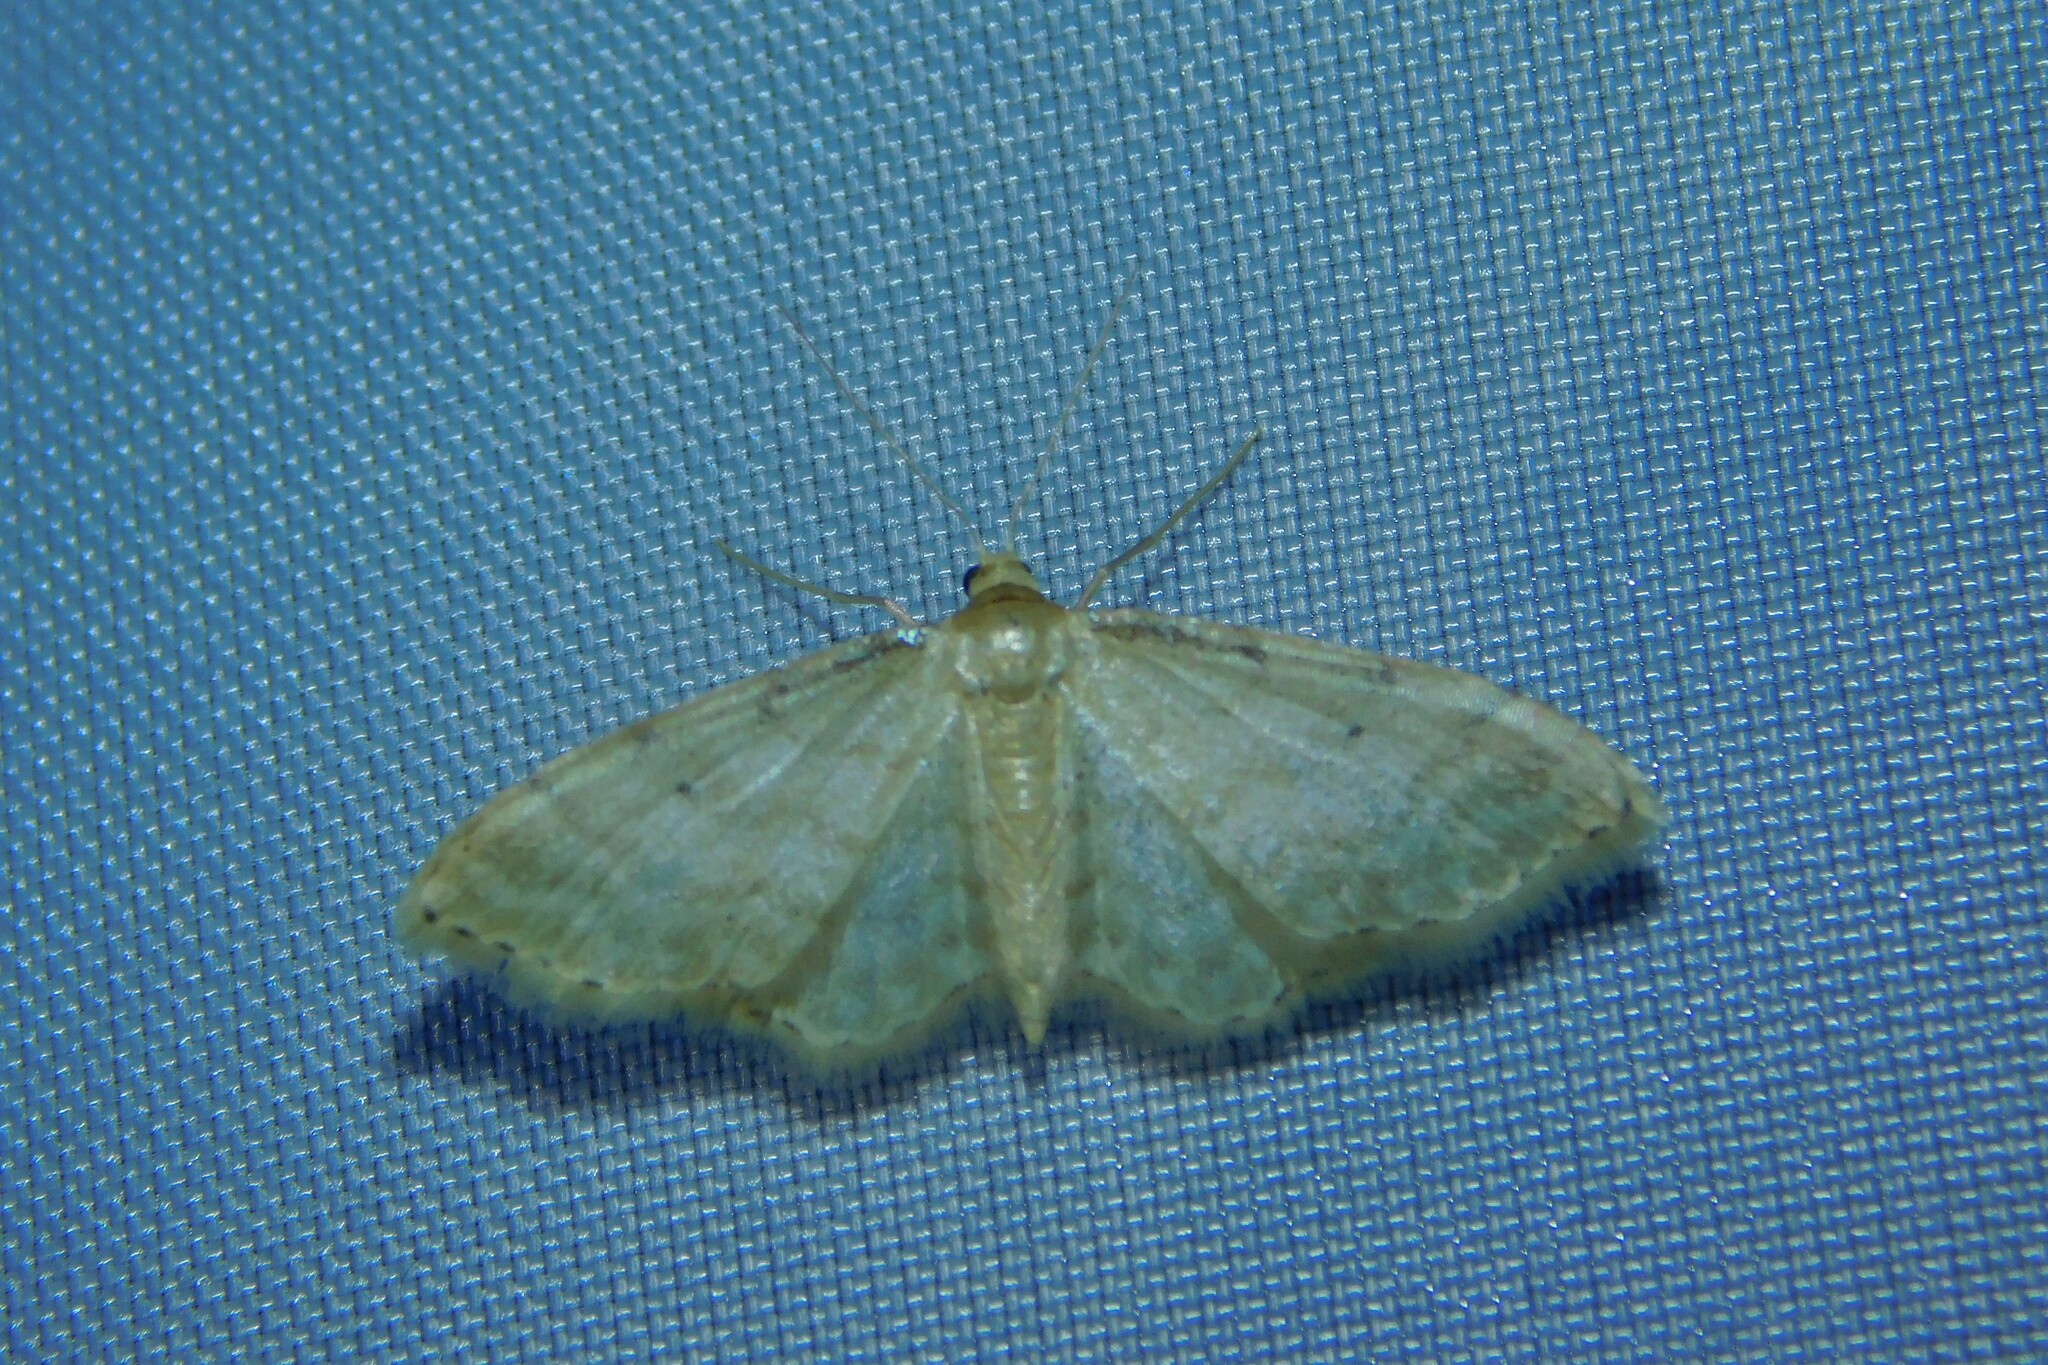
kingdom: Animalia
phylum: Arthropoda
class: Insecta
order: Lepidoptera
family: Geometridae
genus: Idaea
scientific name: Idaea fuscovenosa
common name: Dwarf cream wave
